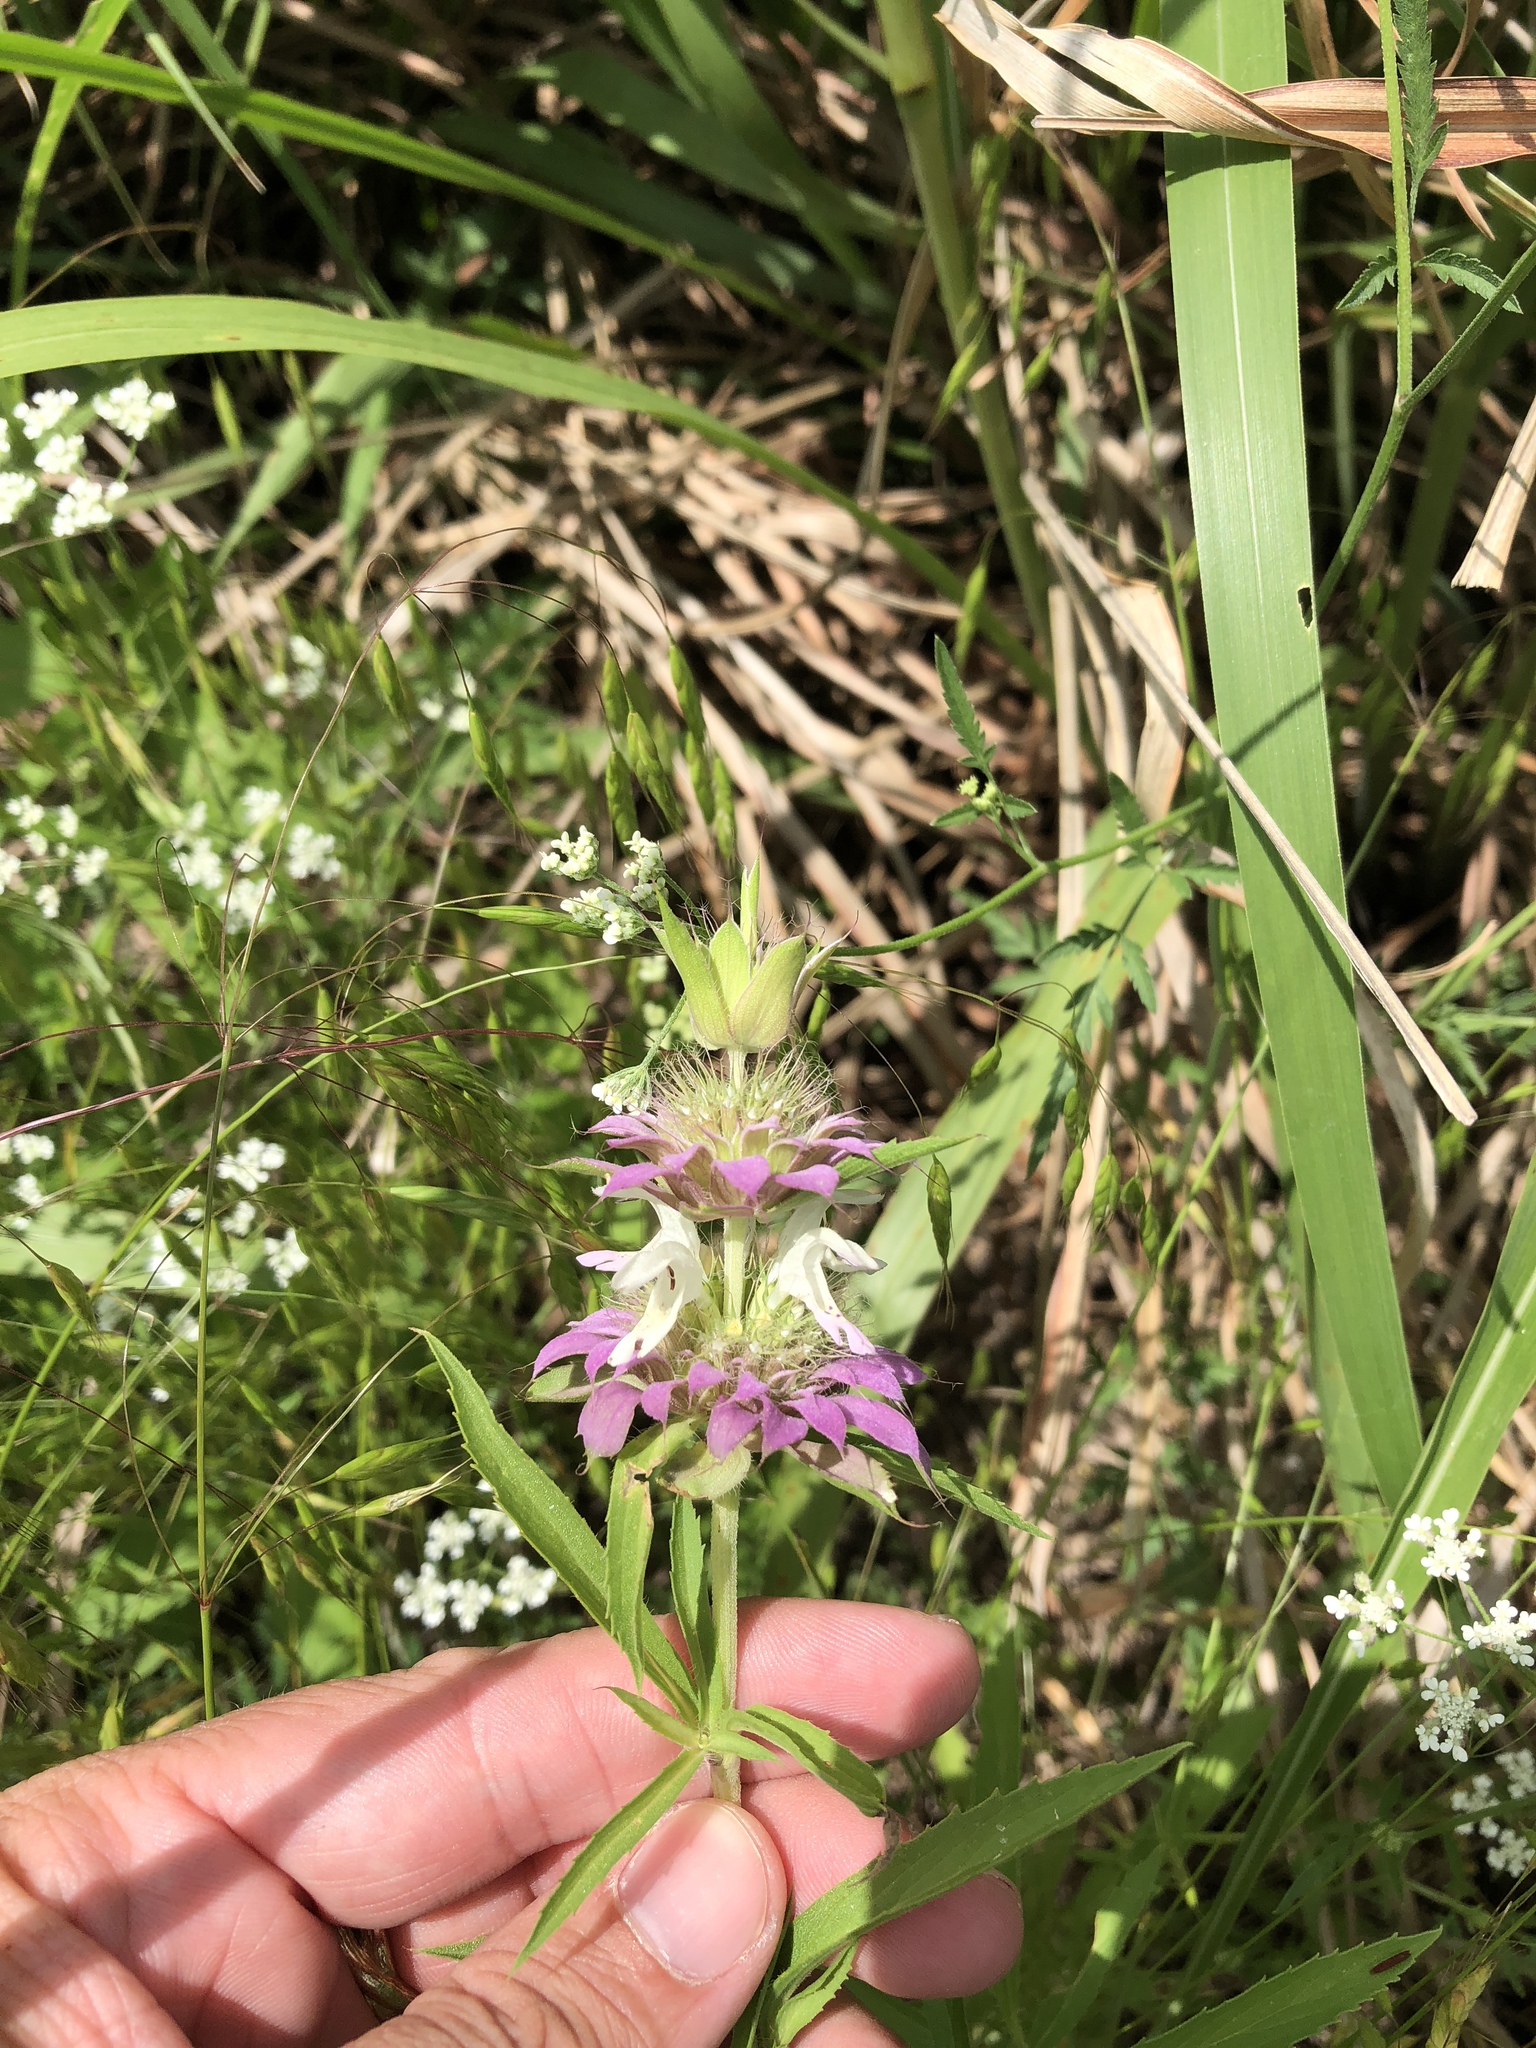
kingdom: Plantae
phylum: Tracheophyta
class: Magnoliopsida
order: Lamiales
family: Lamiaceae
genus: Monarda
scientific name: Monarda citriodora
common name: Lemon beebalm
